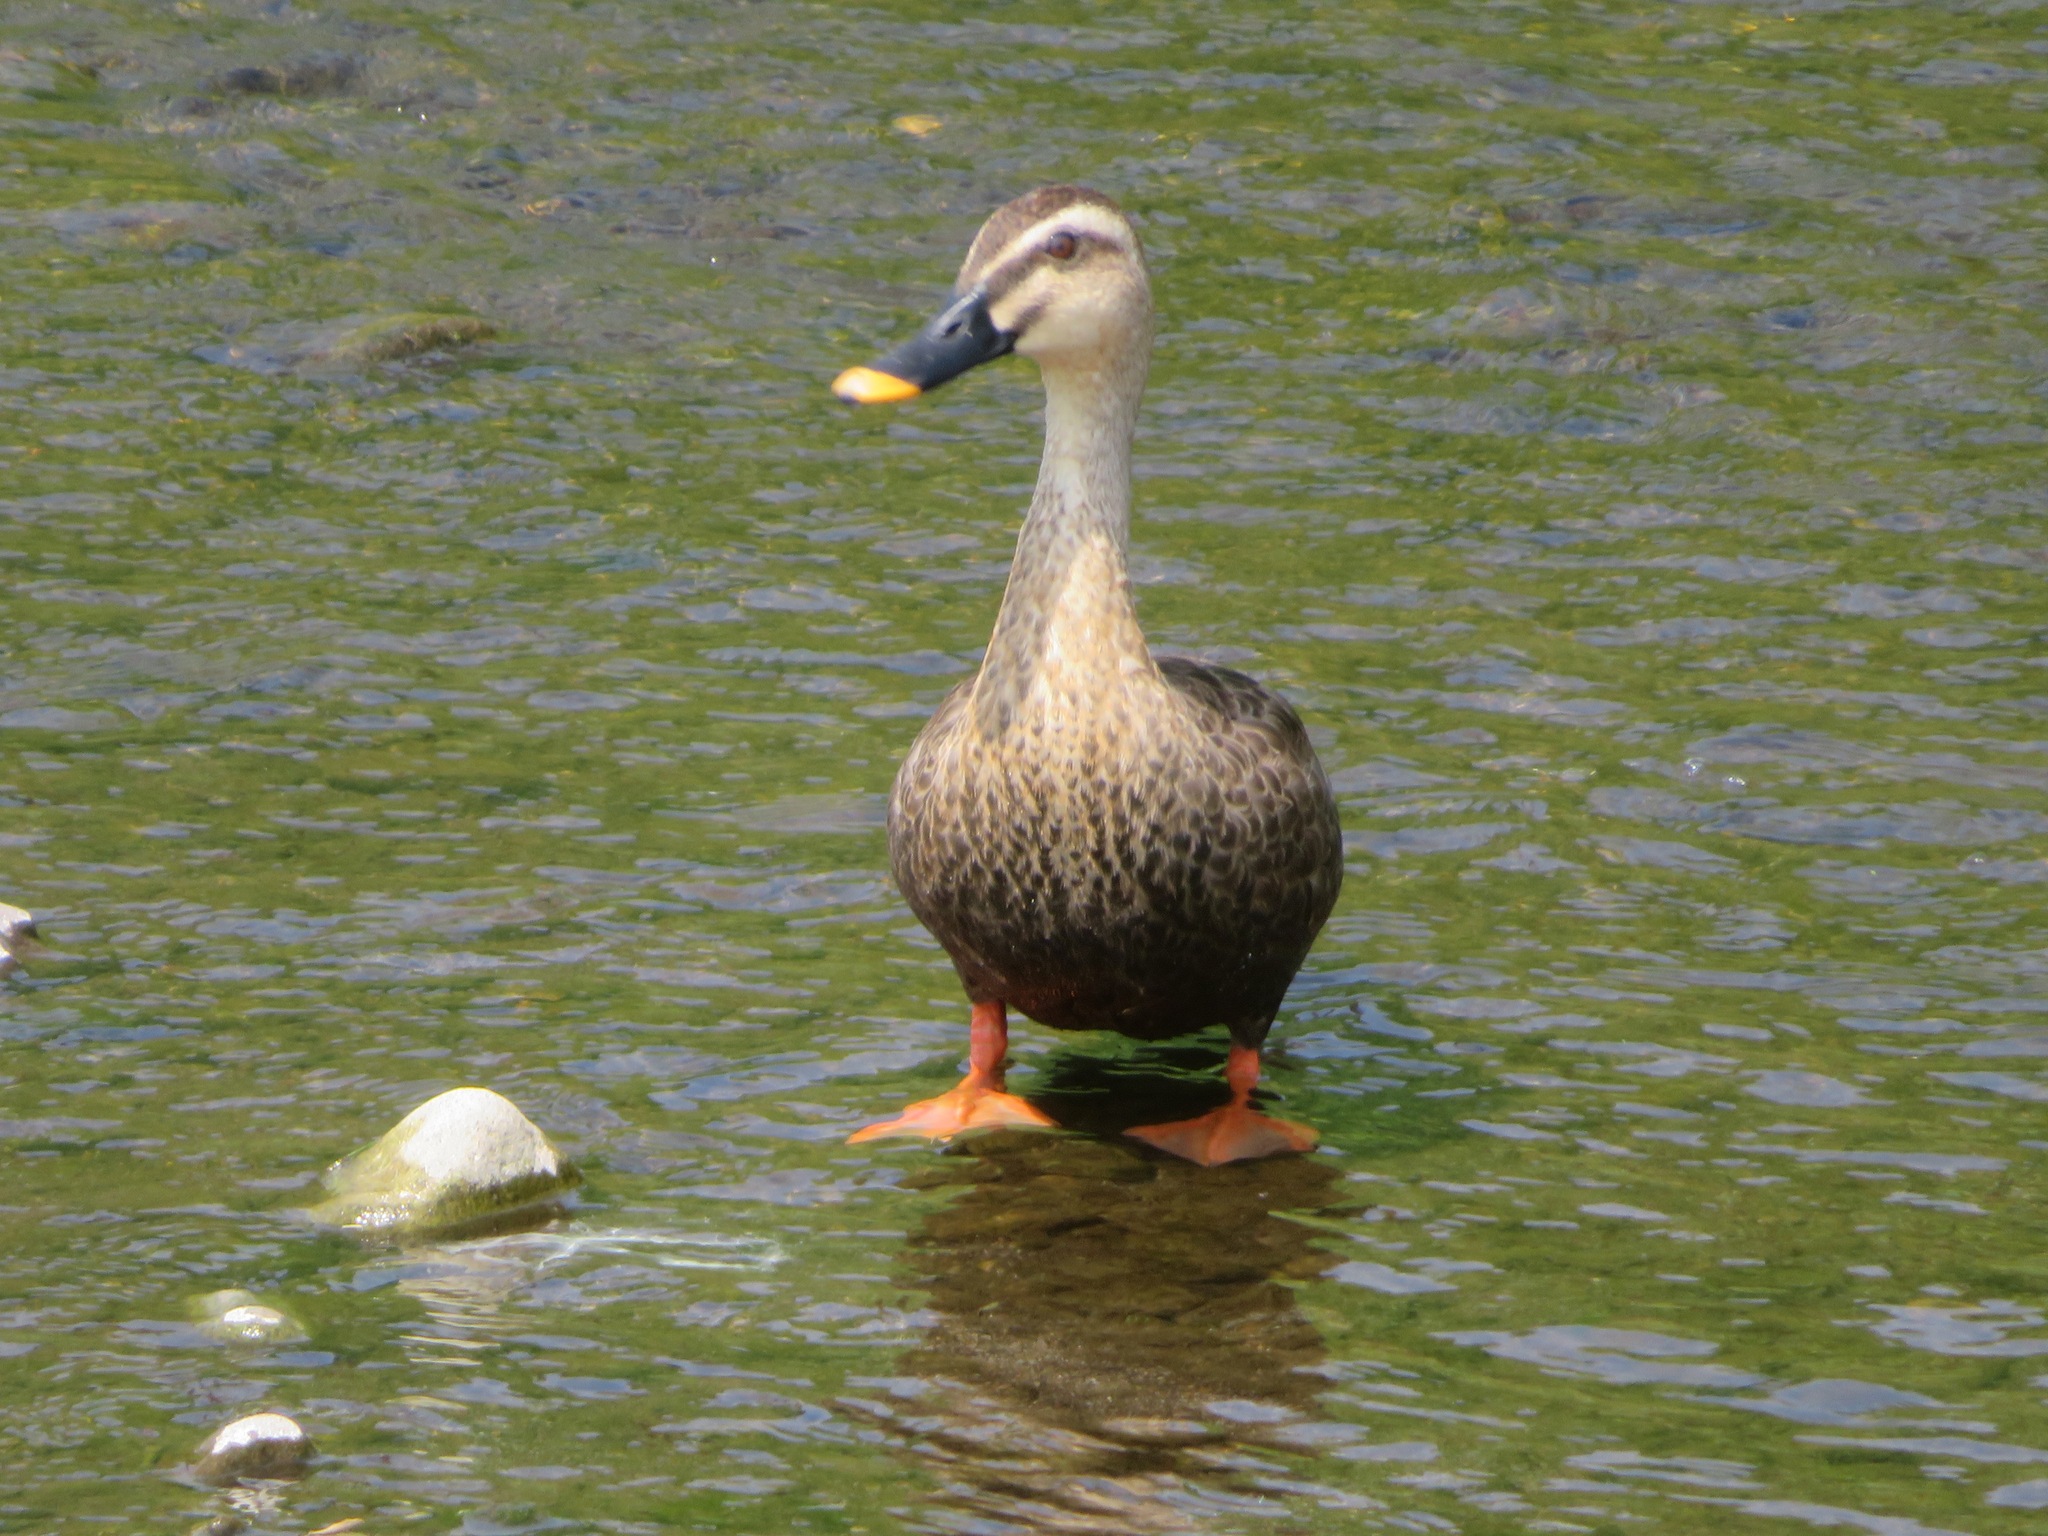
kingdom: Animalia
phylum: Chordata
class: Aves
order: Anseriformes
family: Anatidae
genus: Anas
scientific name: Anas zonorhyncha
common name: Eastern spot-billed duck
